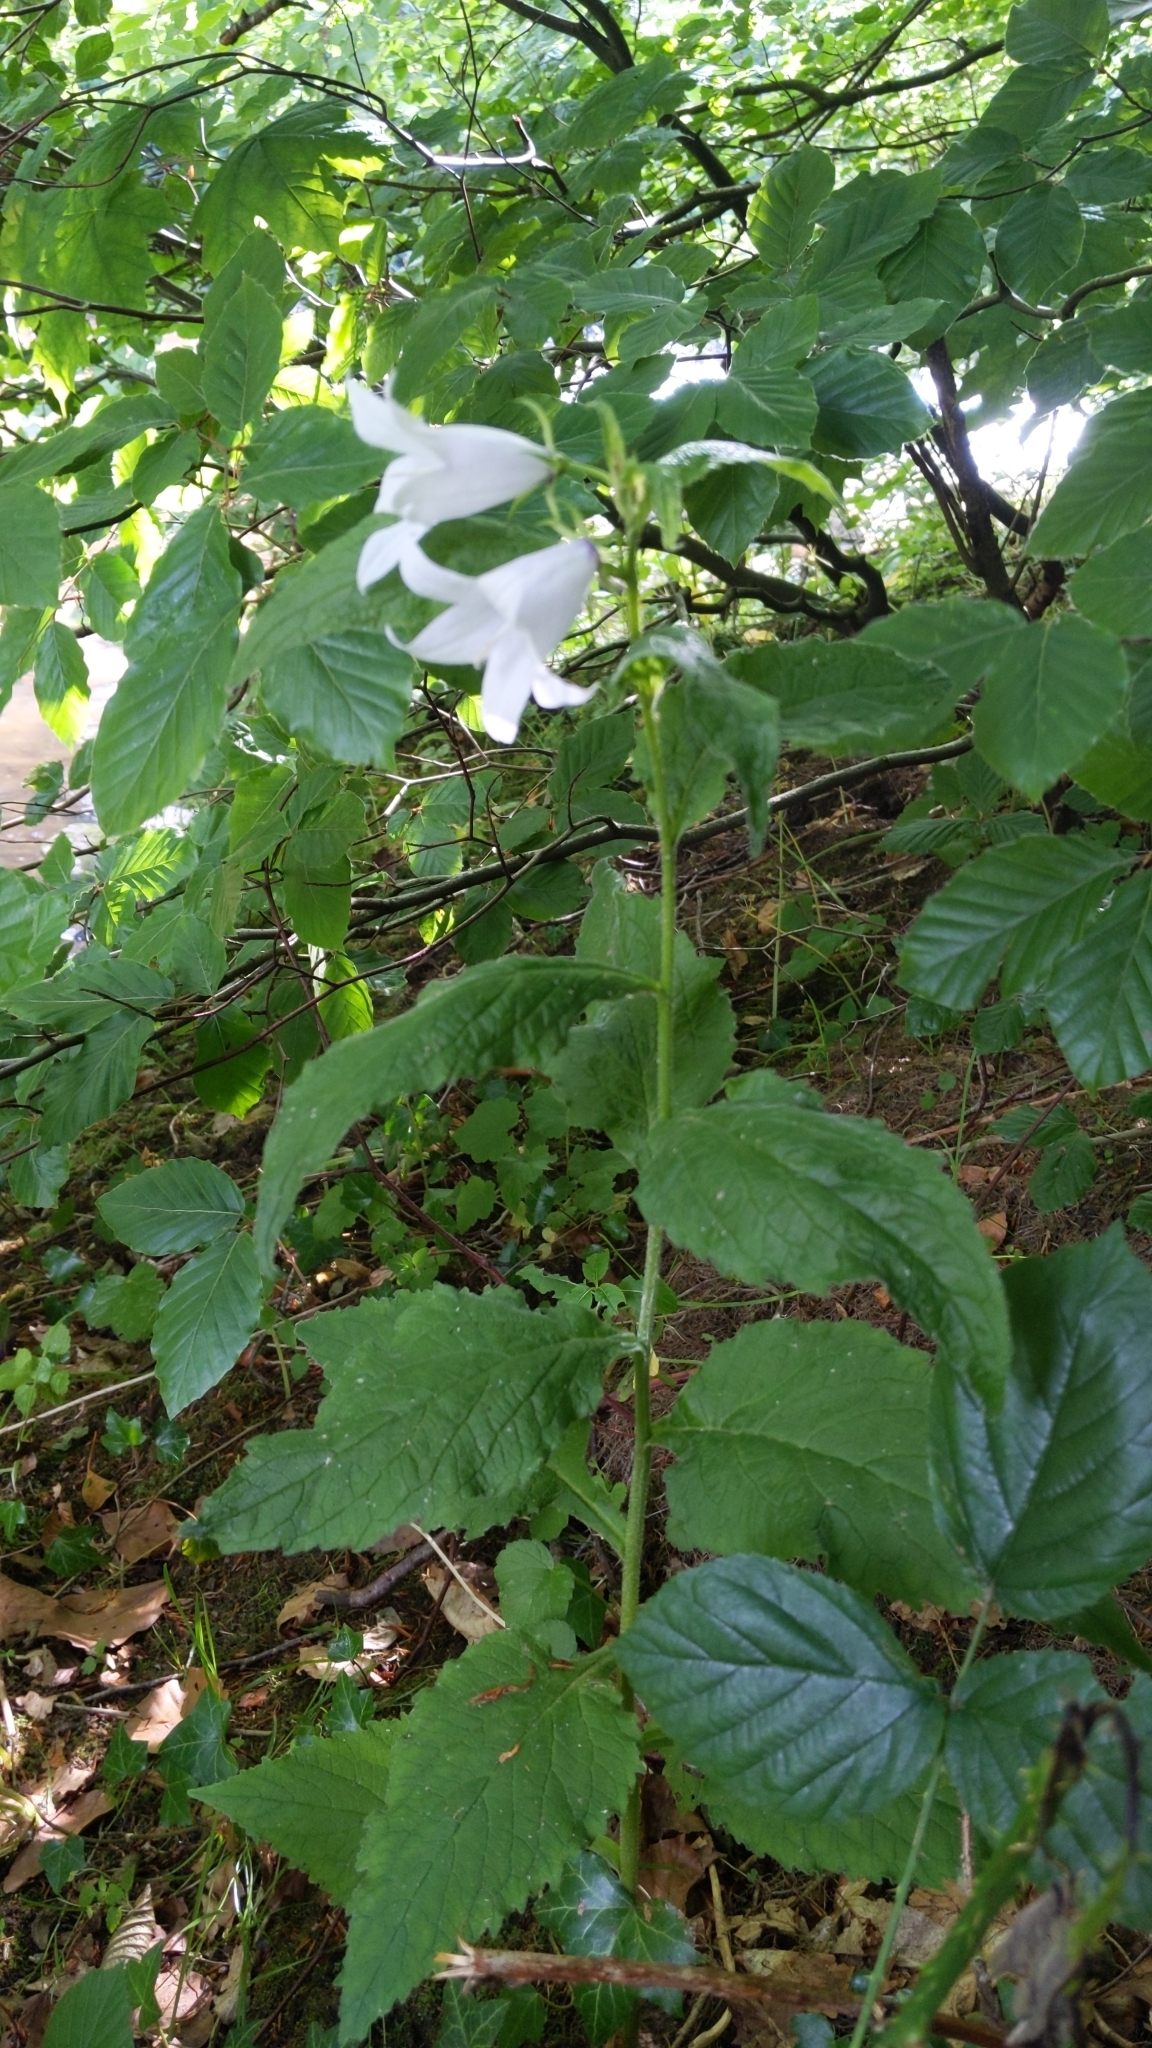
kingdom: Plantae
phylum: Tracheophyta
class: Magnoliopsida
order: Asterales
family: Campanulaceae
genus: Campanula
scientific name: Campanula latifolia
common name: Giant bellflower
